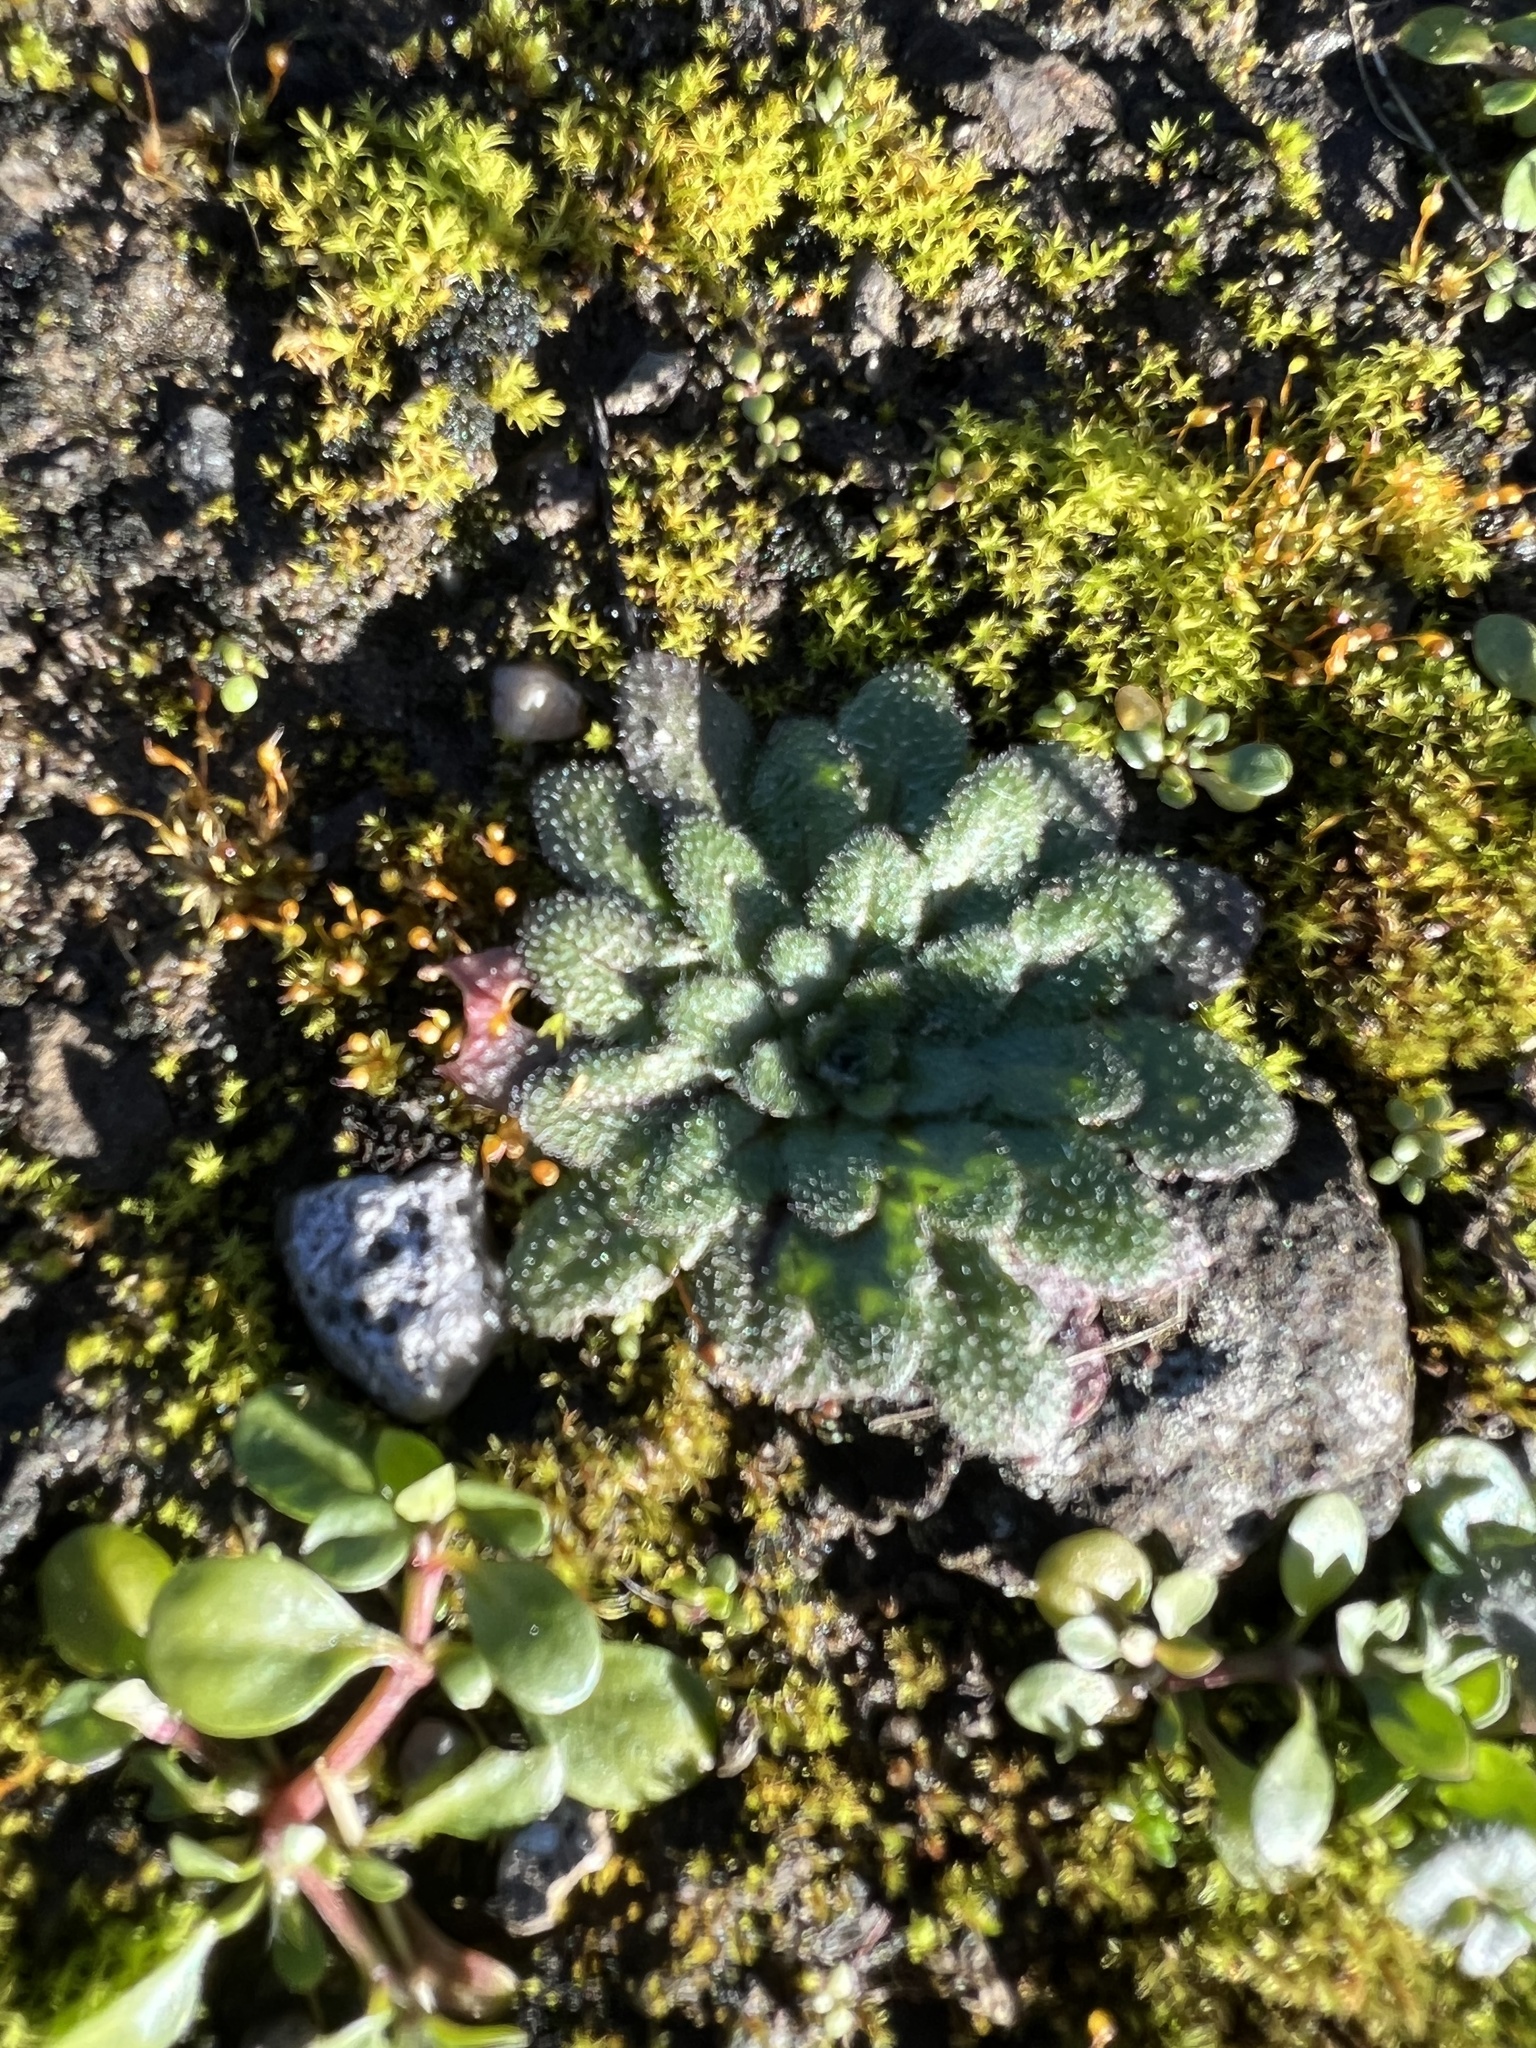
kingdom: Plantae
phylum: Tracheophyta
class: Magnoliopsida
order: Brassicales
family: Brassicaceae
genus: Arabidopsis
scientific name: Arabidopsis thaliana
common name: Thale cress
